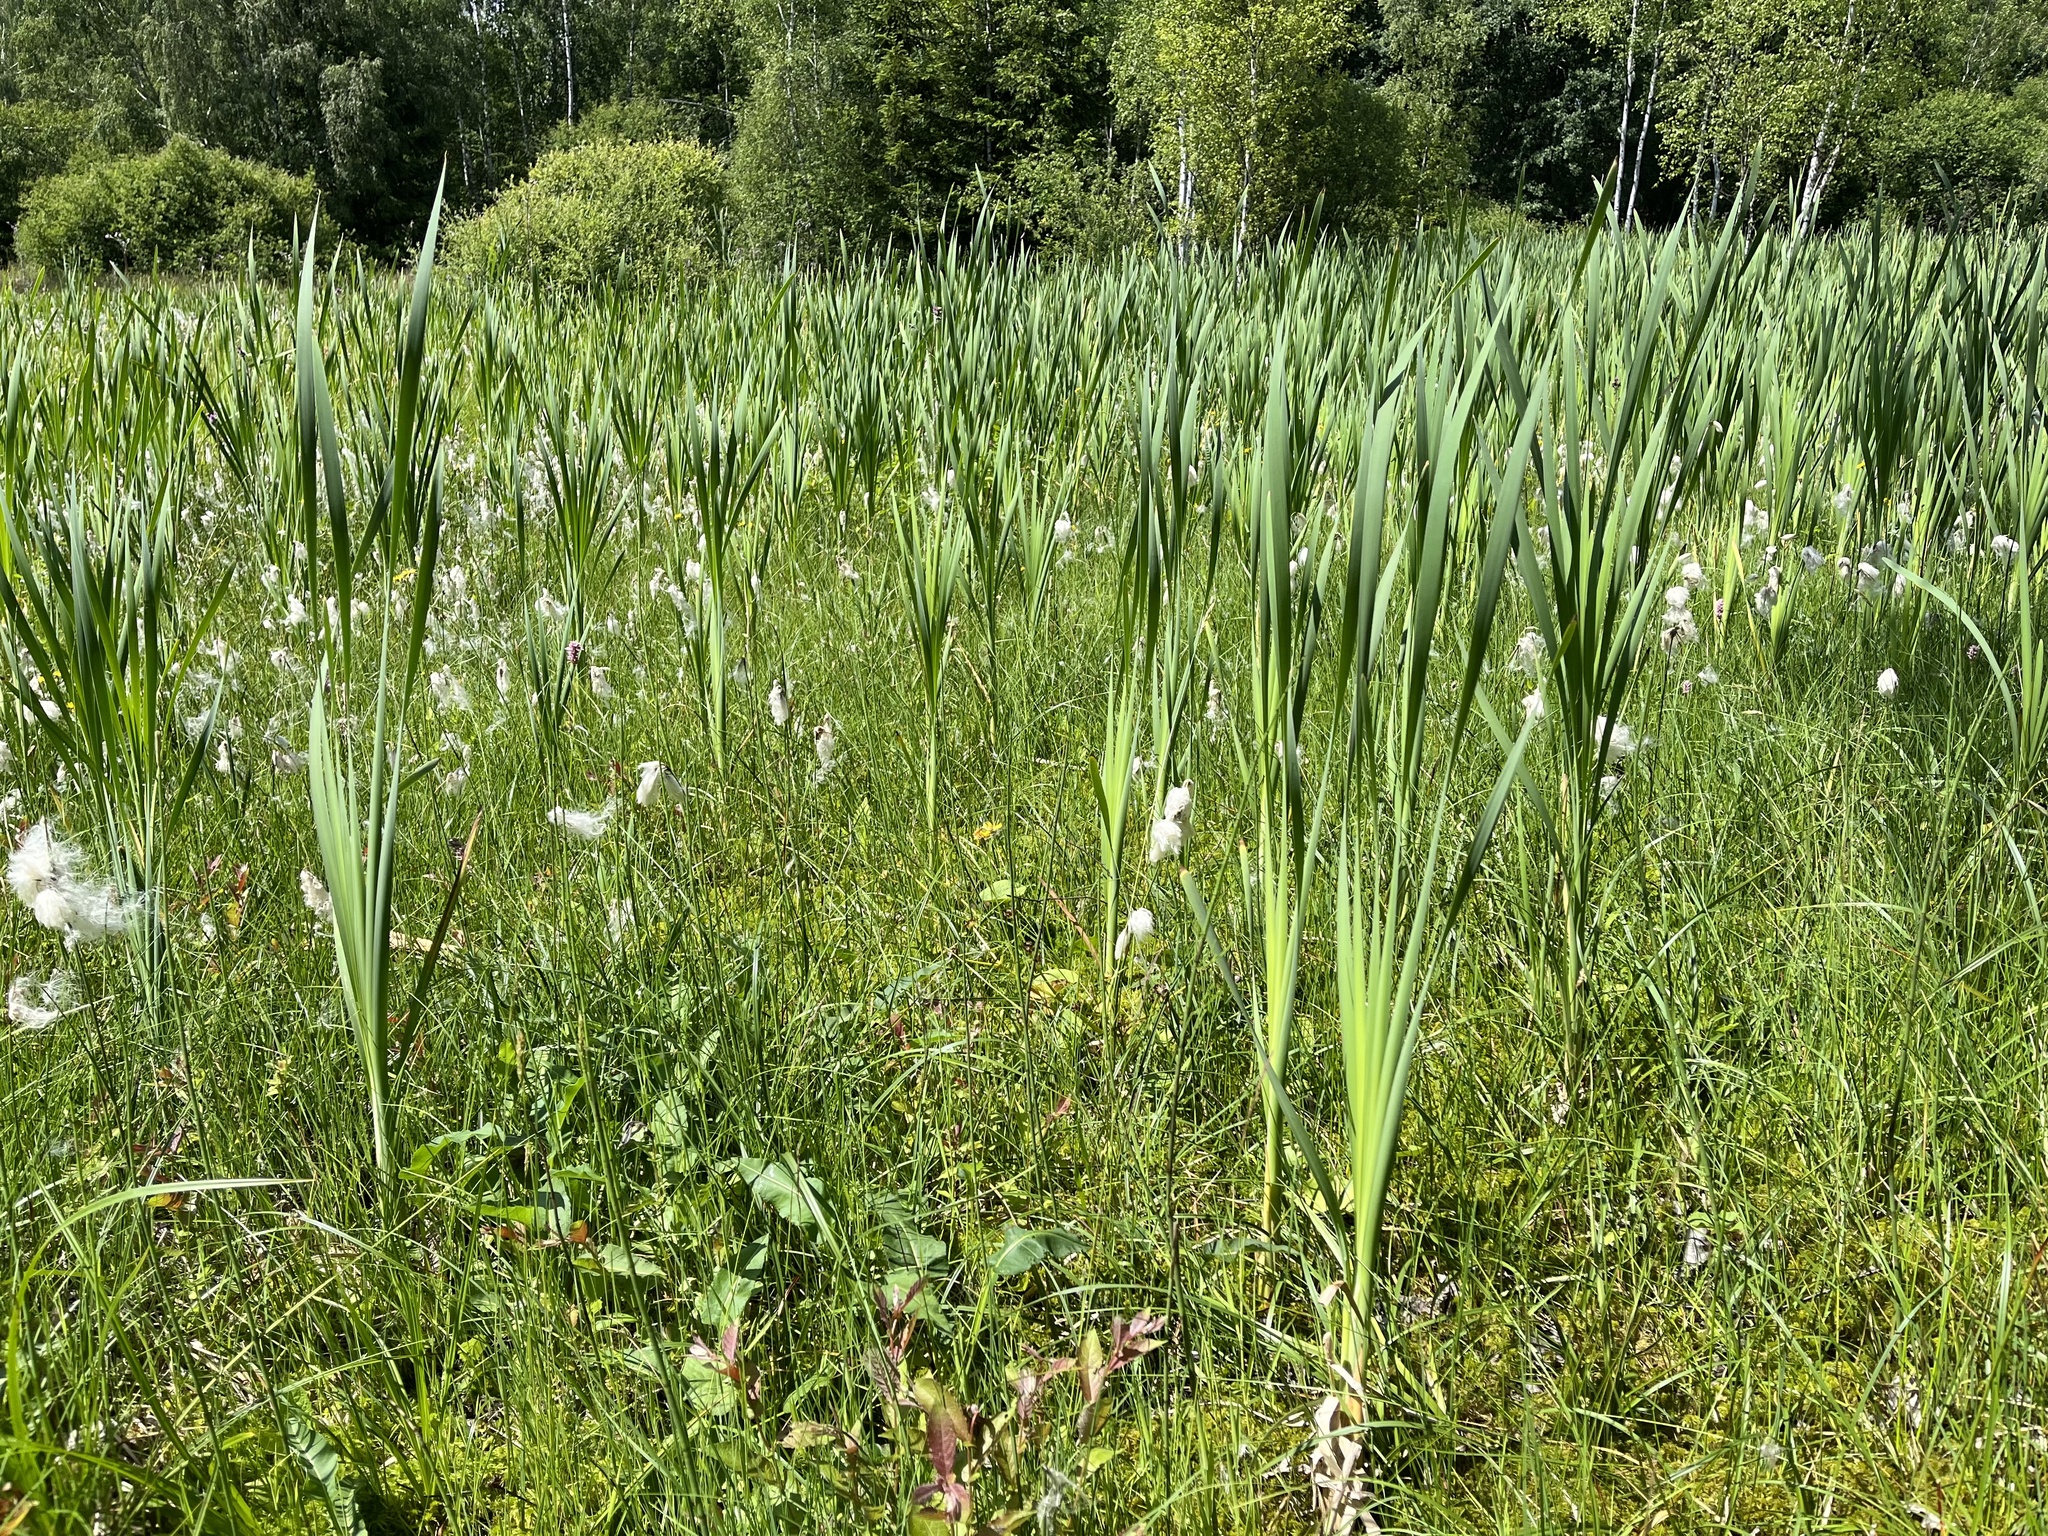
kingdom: Plantae
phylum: Tracheophyta
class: Liliopsida
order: Poales
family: Typhaceae
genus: Typha
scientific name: Typha latifolia
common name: Broadleaf cattail
